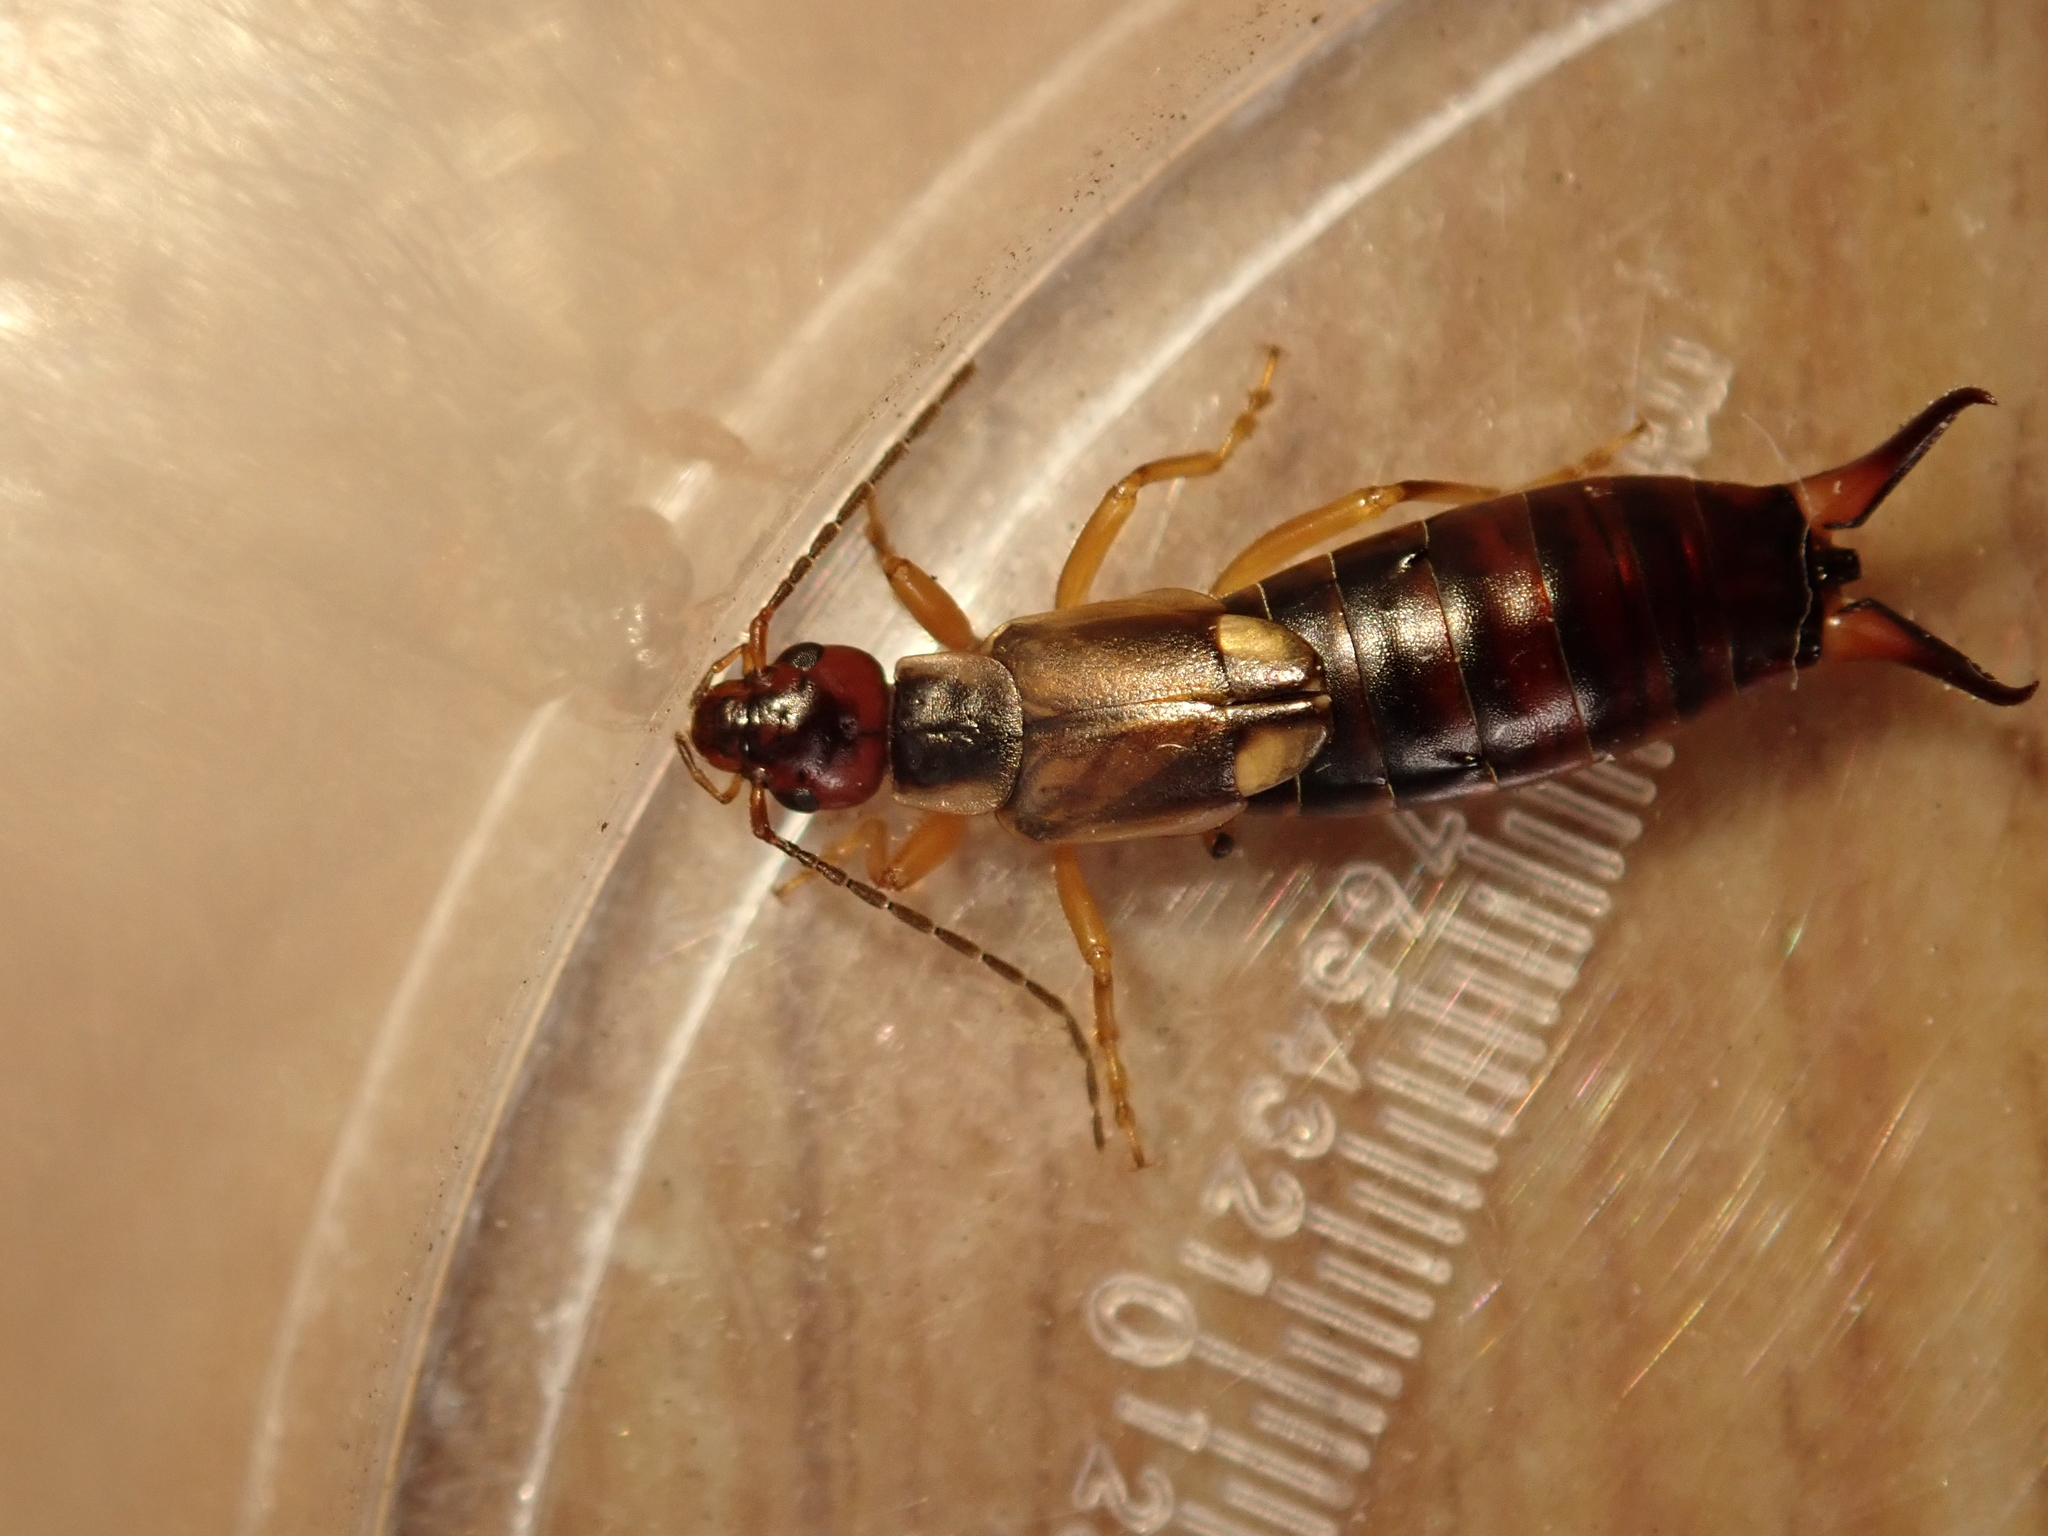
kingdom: Animalia
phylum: Arthropoda
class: Insecta
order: Dermaptera
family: Forficulidae
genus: Forficula
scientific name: Forficula
